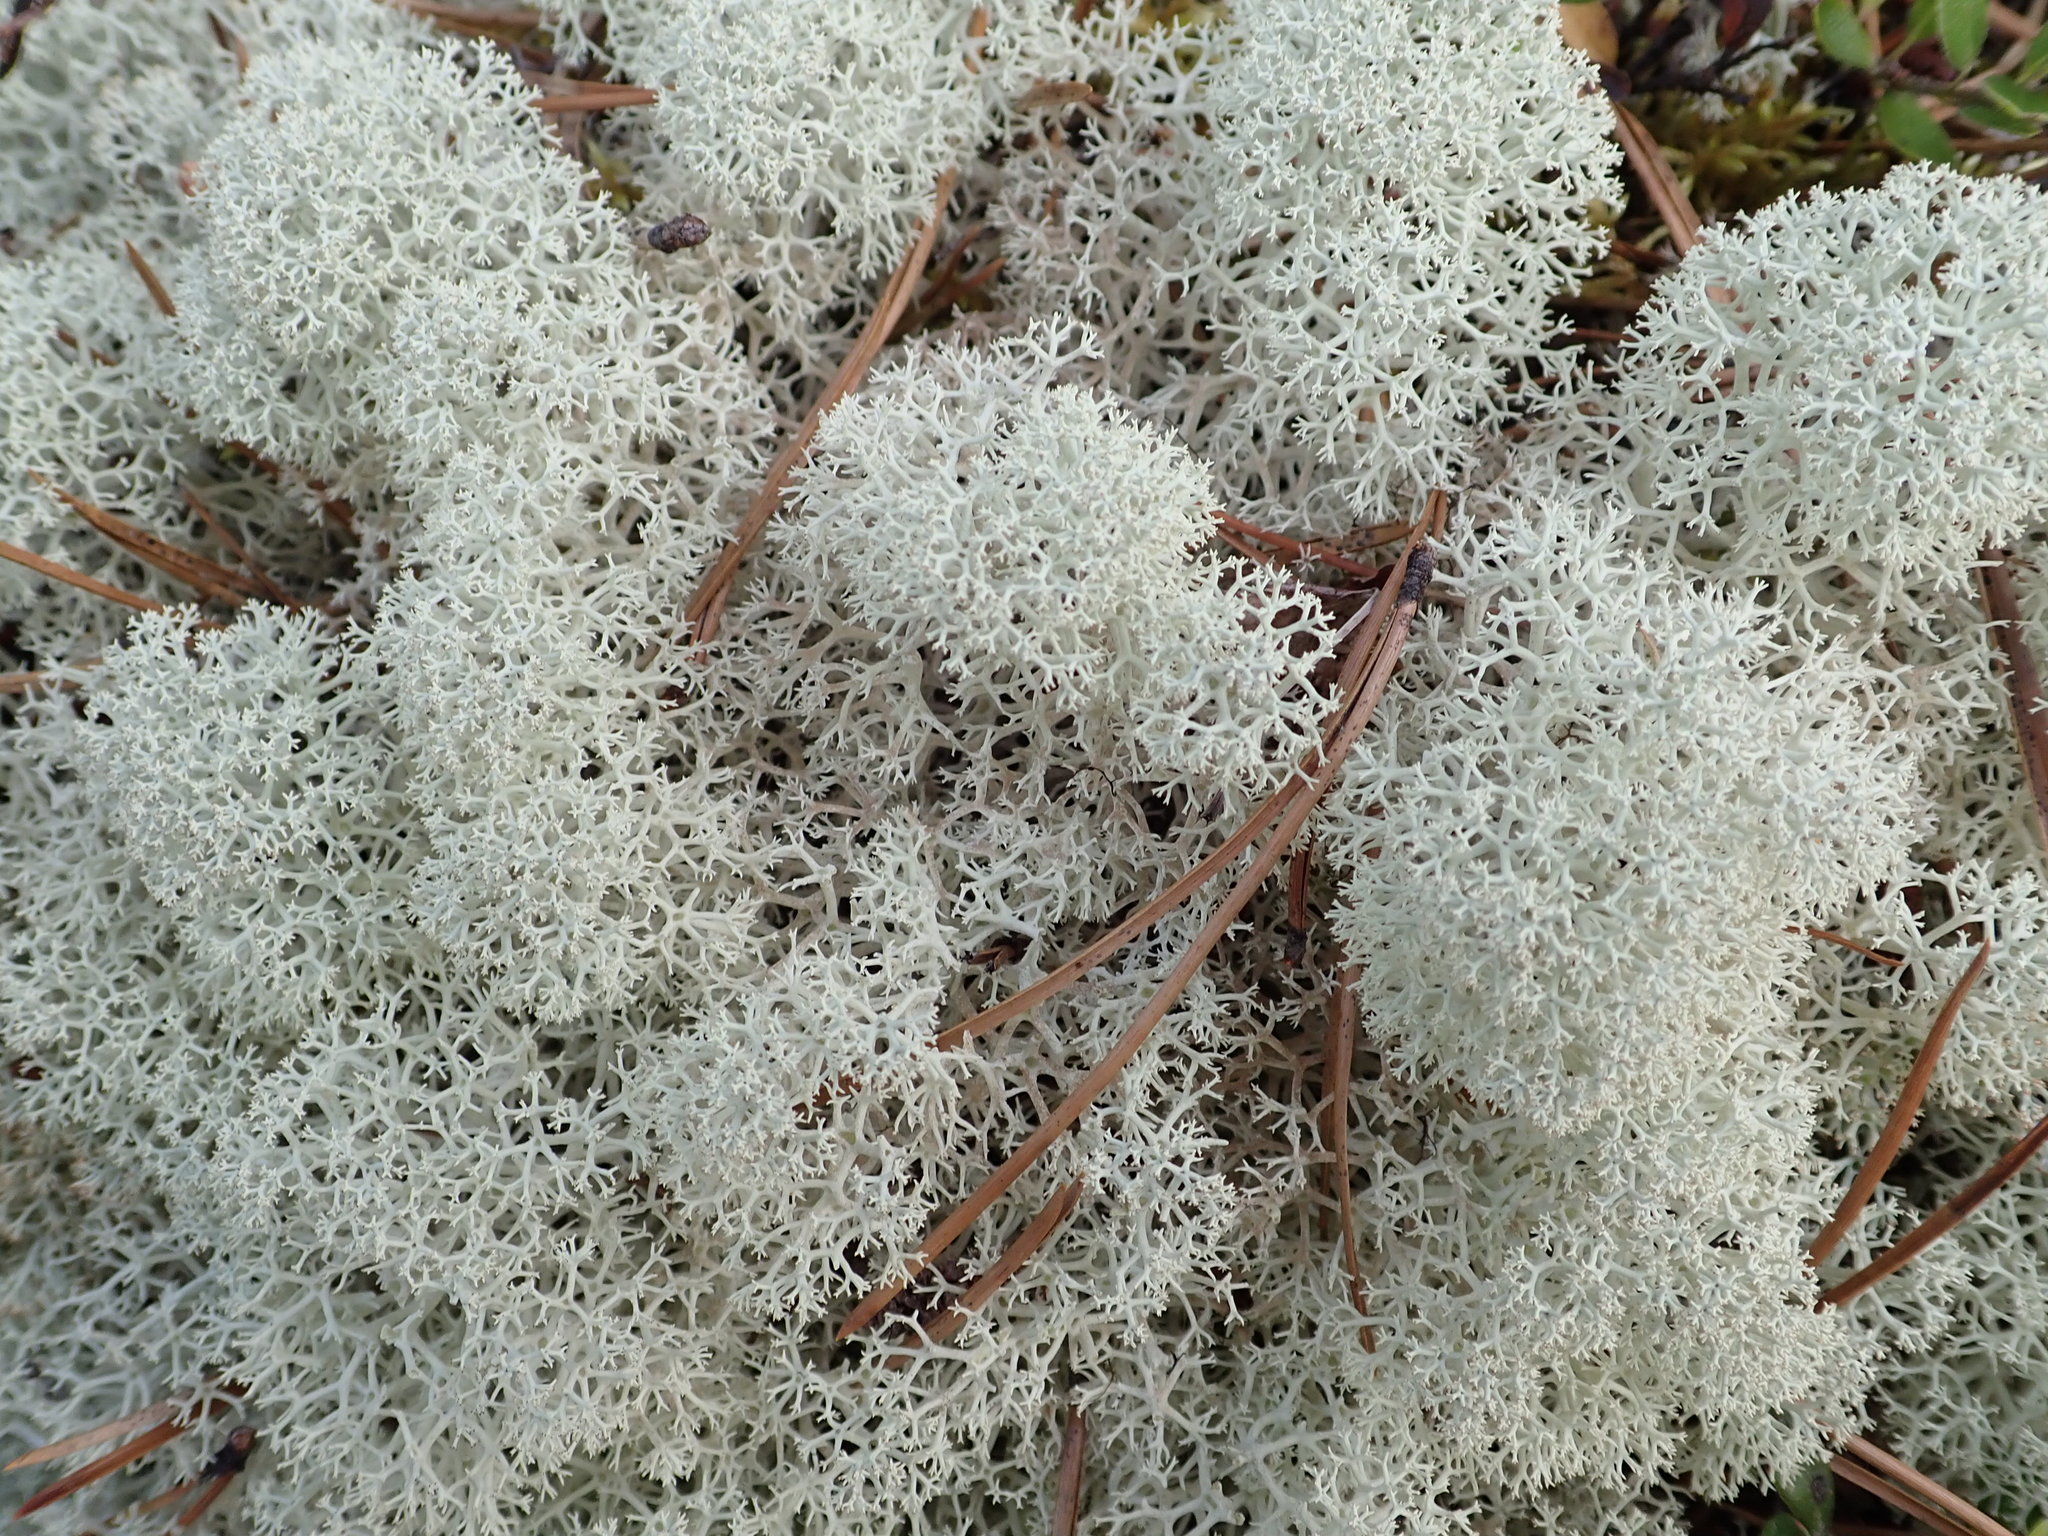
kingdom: Fungi
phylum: Ascomycota
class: Lecanoromycetes
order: Lecanorales
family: Cladoniaceae
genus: Cladonia
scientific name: Cladonia stellaris
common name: Star-tipped reindeer lichen
